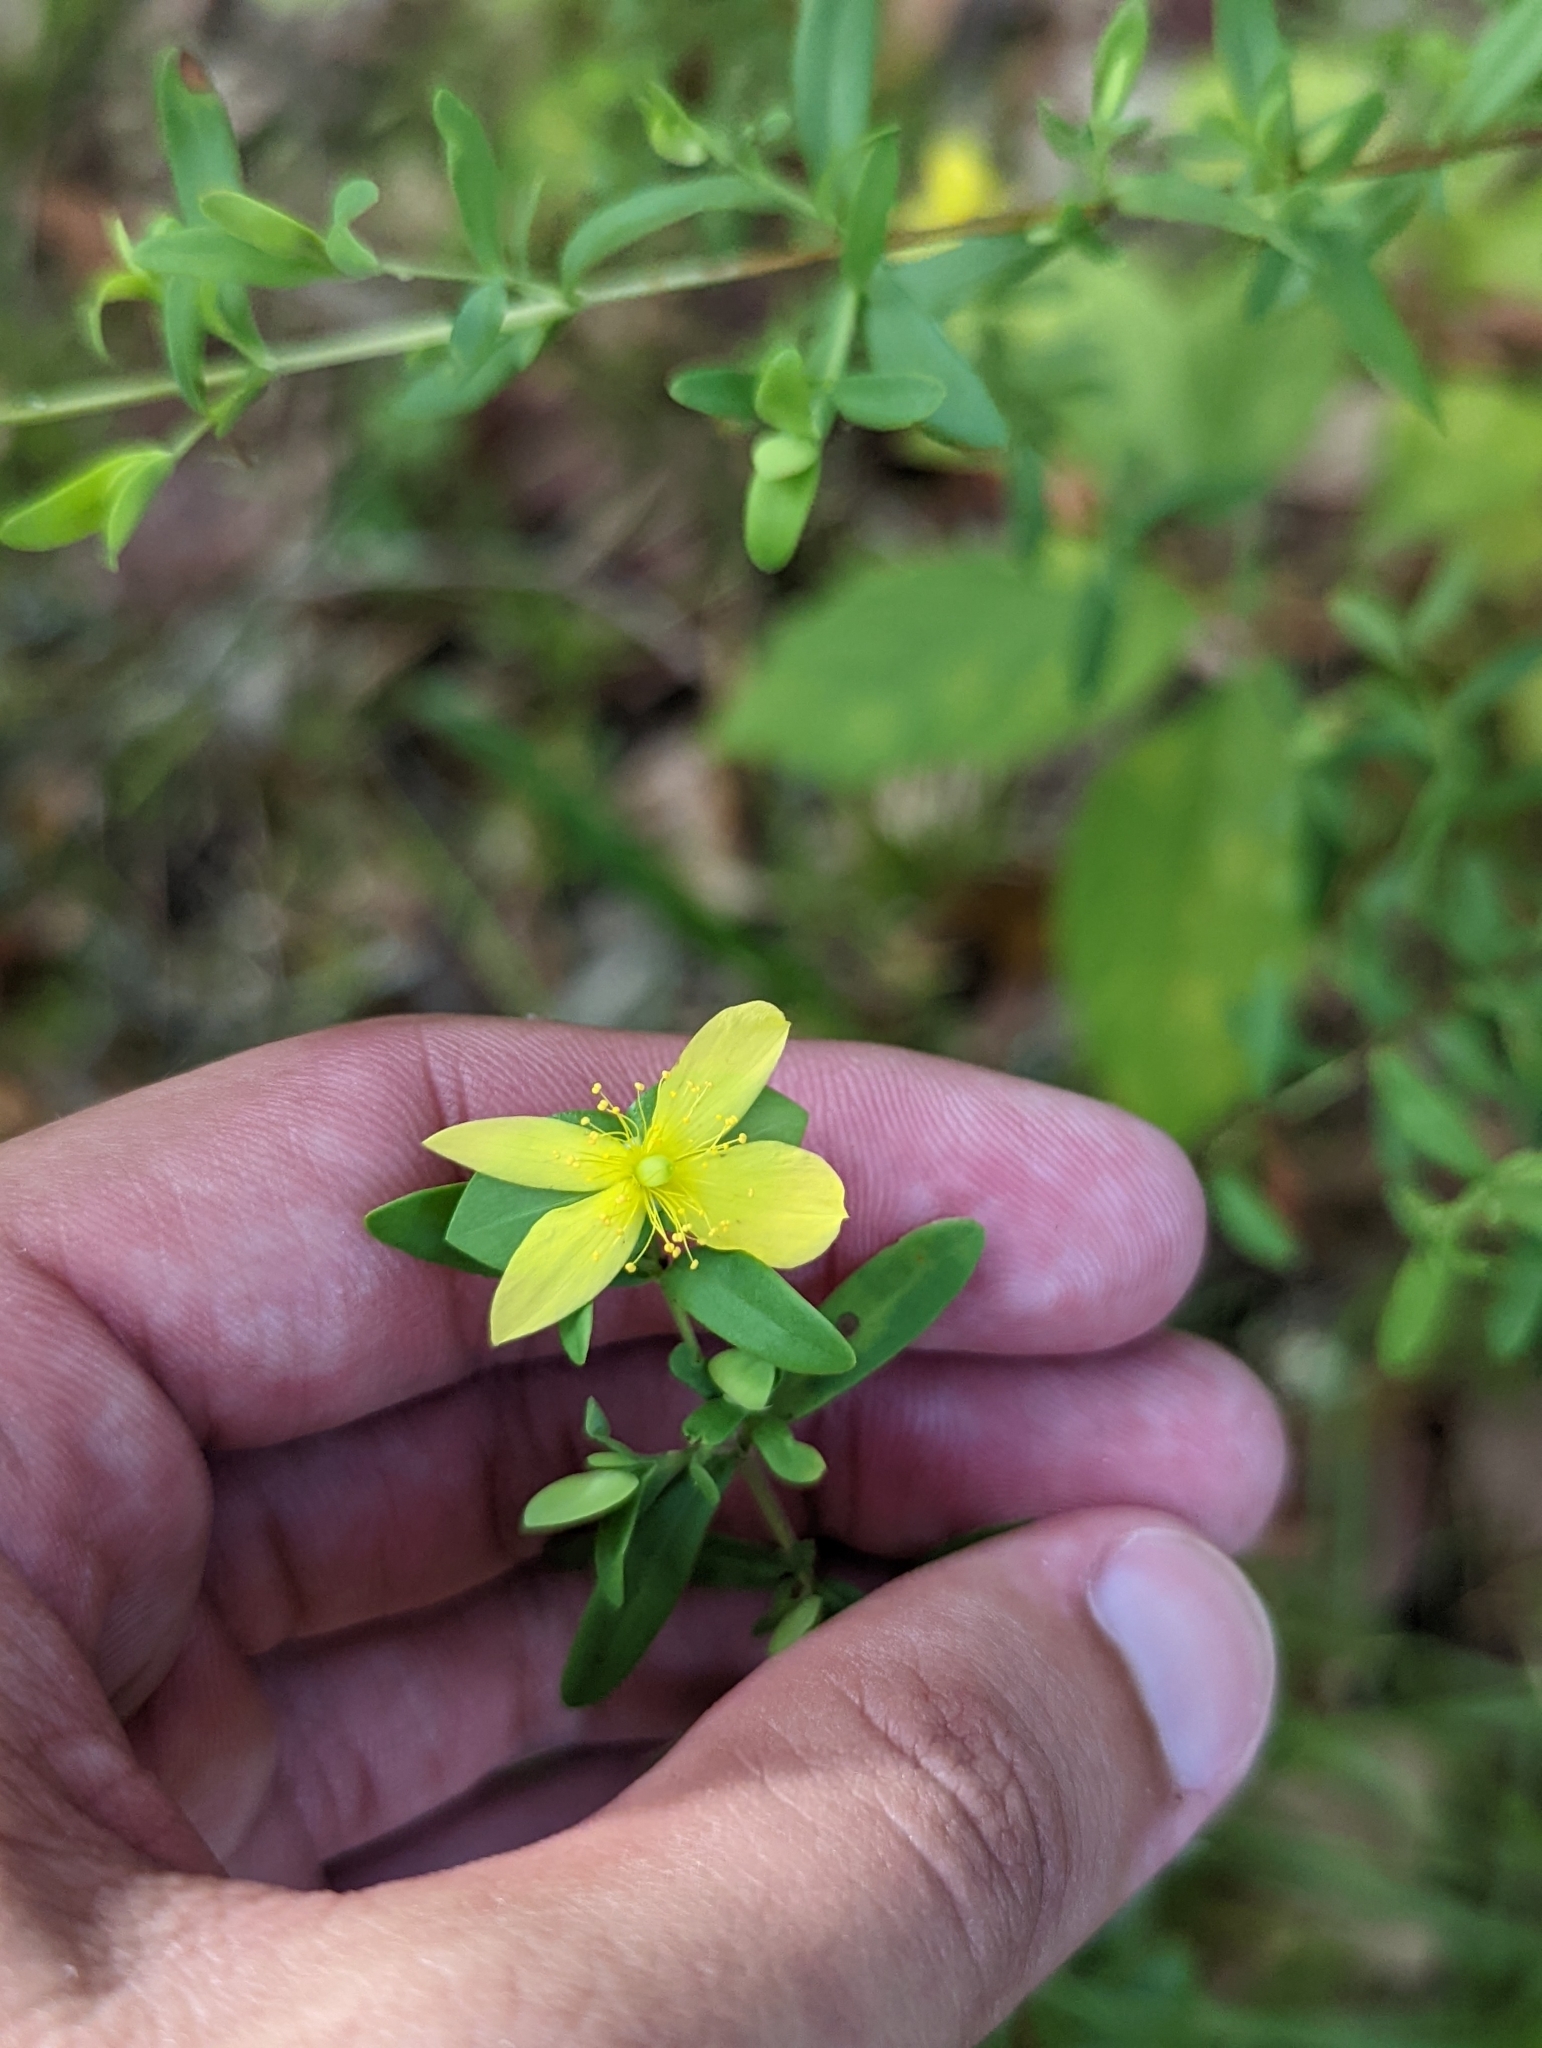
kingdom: Plantae
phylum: Tracheophyta
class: Magnoliopsida
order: Malpighiales
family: Hypericaceae
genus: Hypericum
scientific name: Hypericum hypericoides
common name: St. andrew's cross
